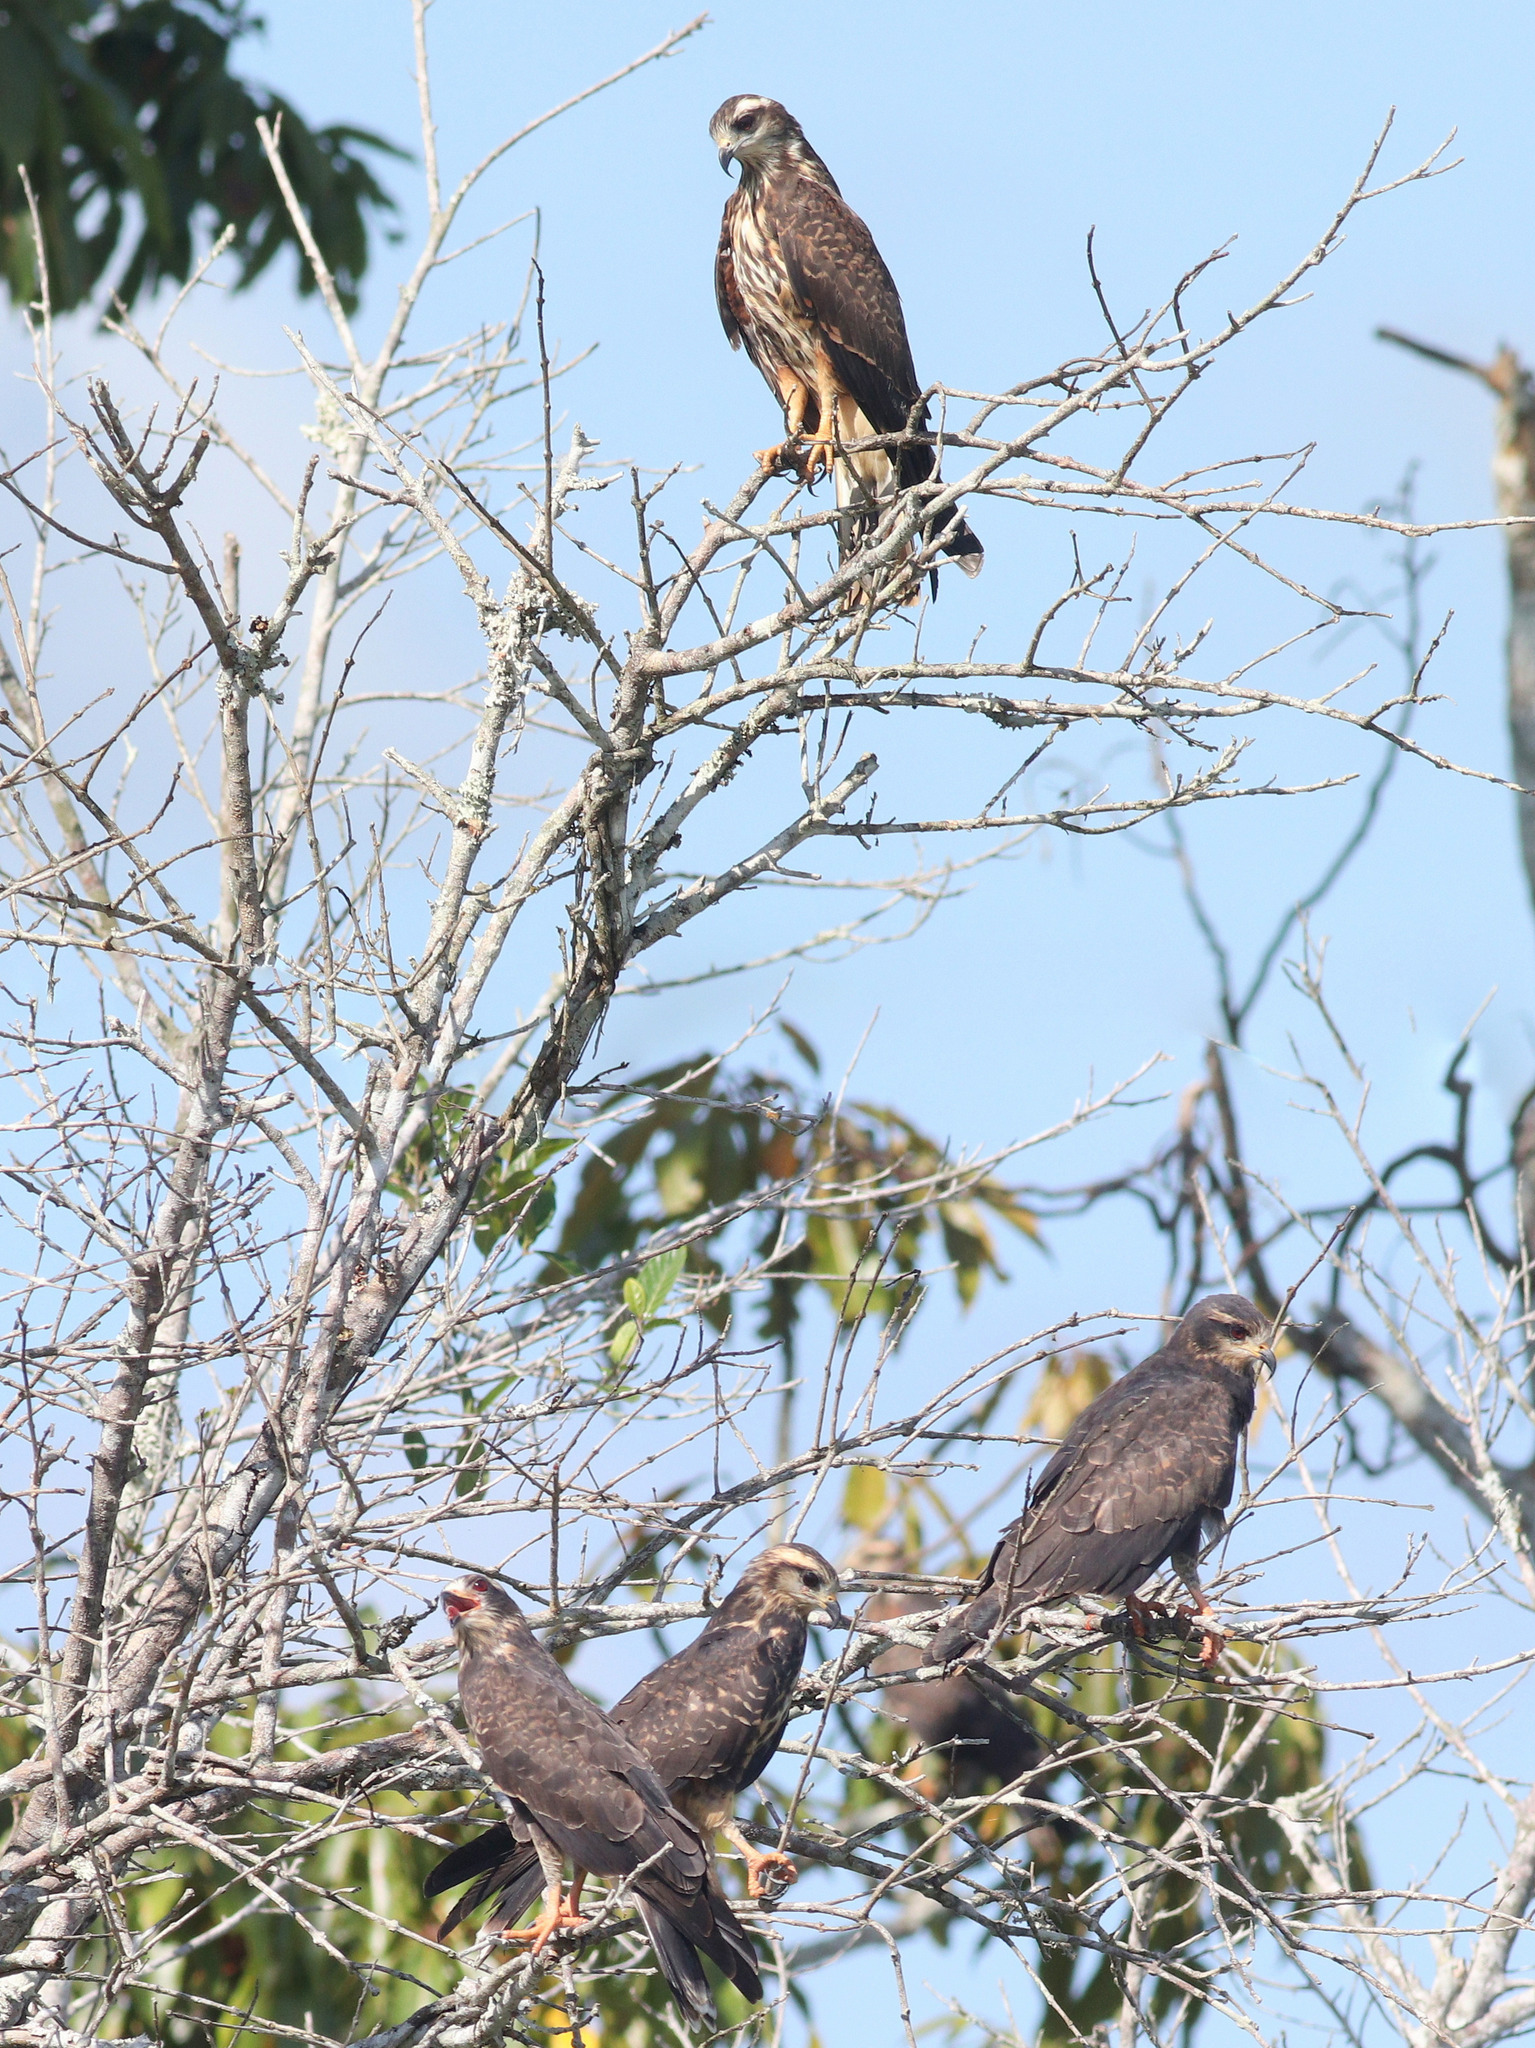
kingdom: Animalia
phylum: Chordata
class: Aves
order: Accipitriformes
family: Accipitridae
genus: Rostrhamus
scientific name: Rostrhamus sociabilis
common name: Snail kite
